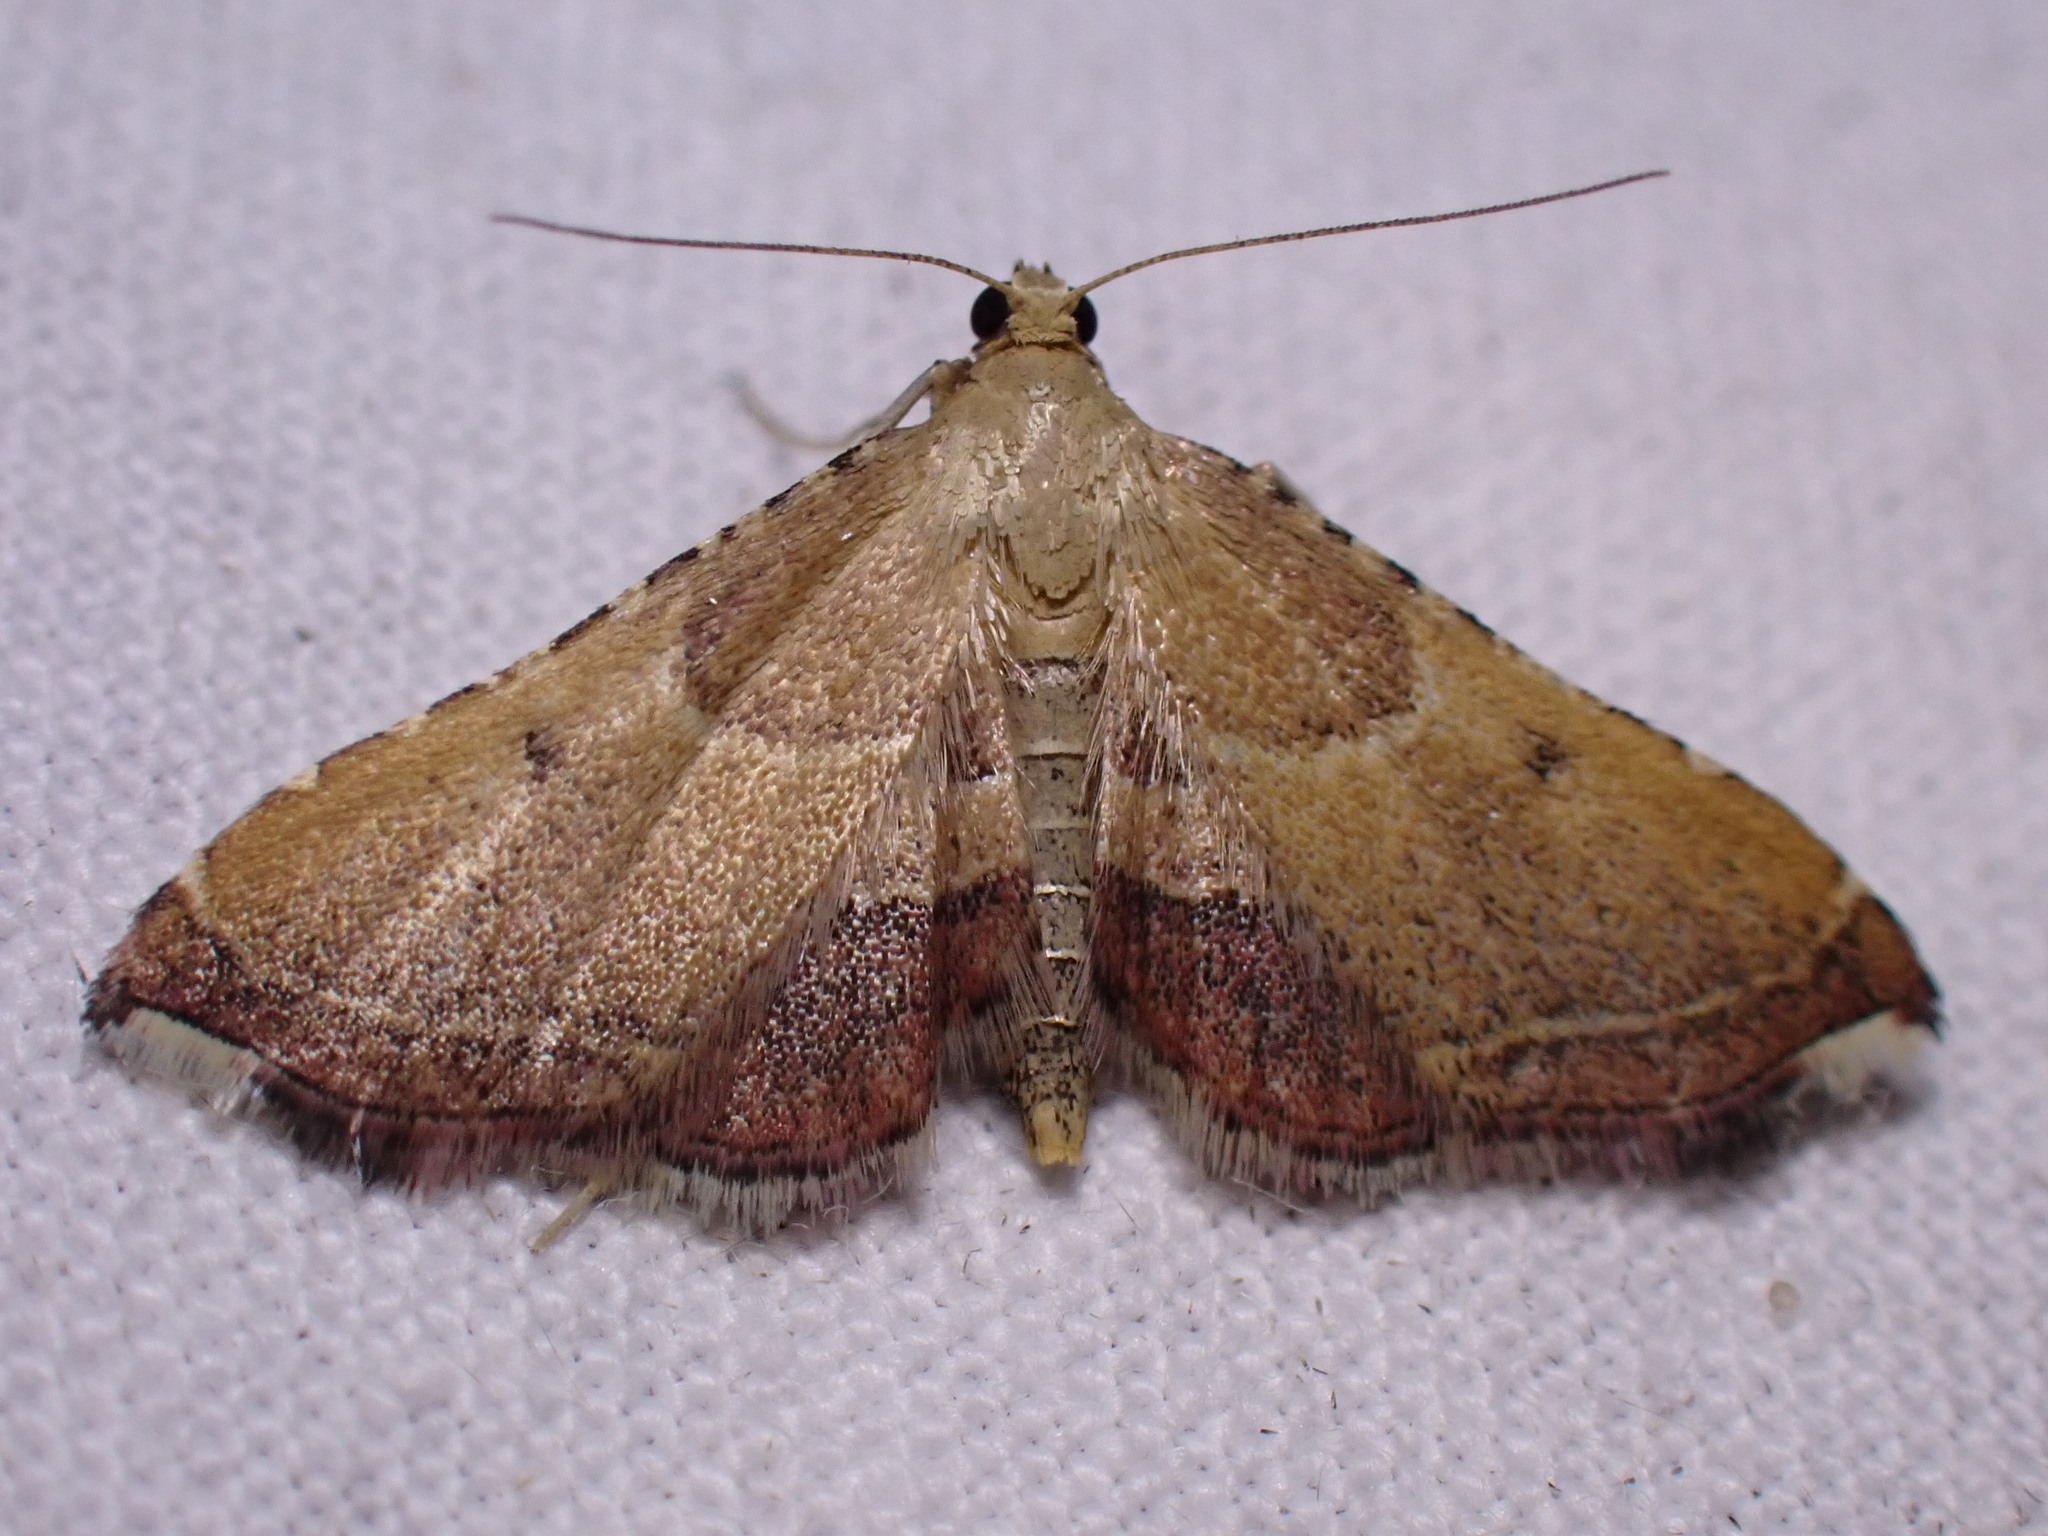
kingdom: Animalia
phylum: Arthropoda
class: Insecta
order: Lepidoptera
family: Pyralidae
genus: Endotricha
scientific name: Endotricha flammealis
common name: Rosy tabby
